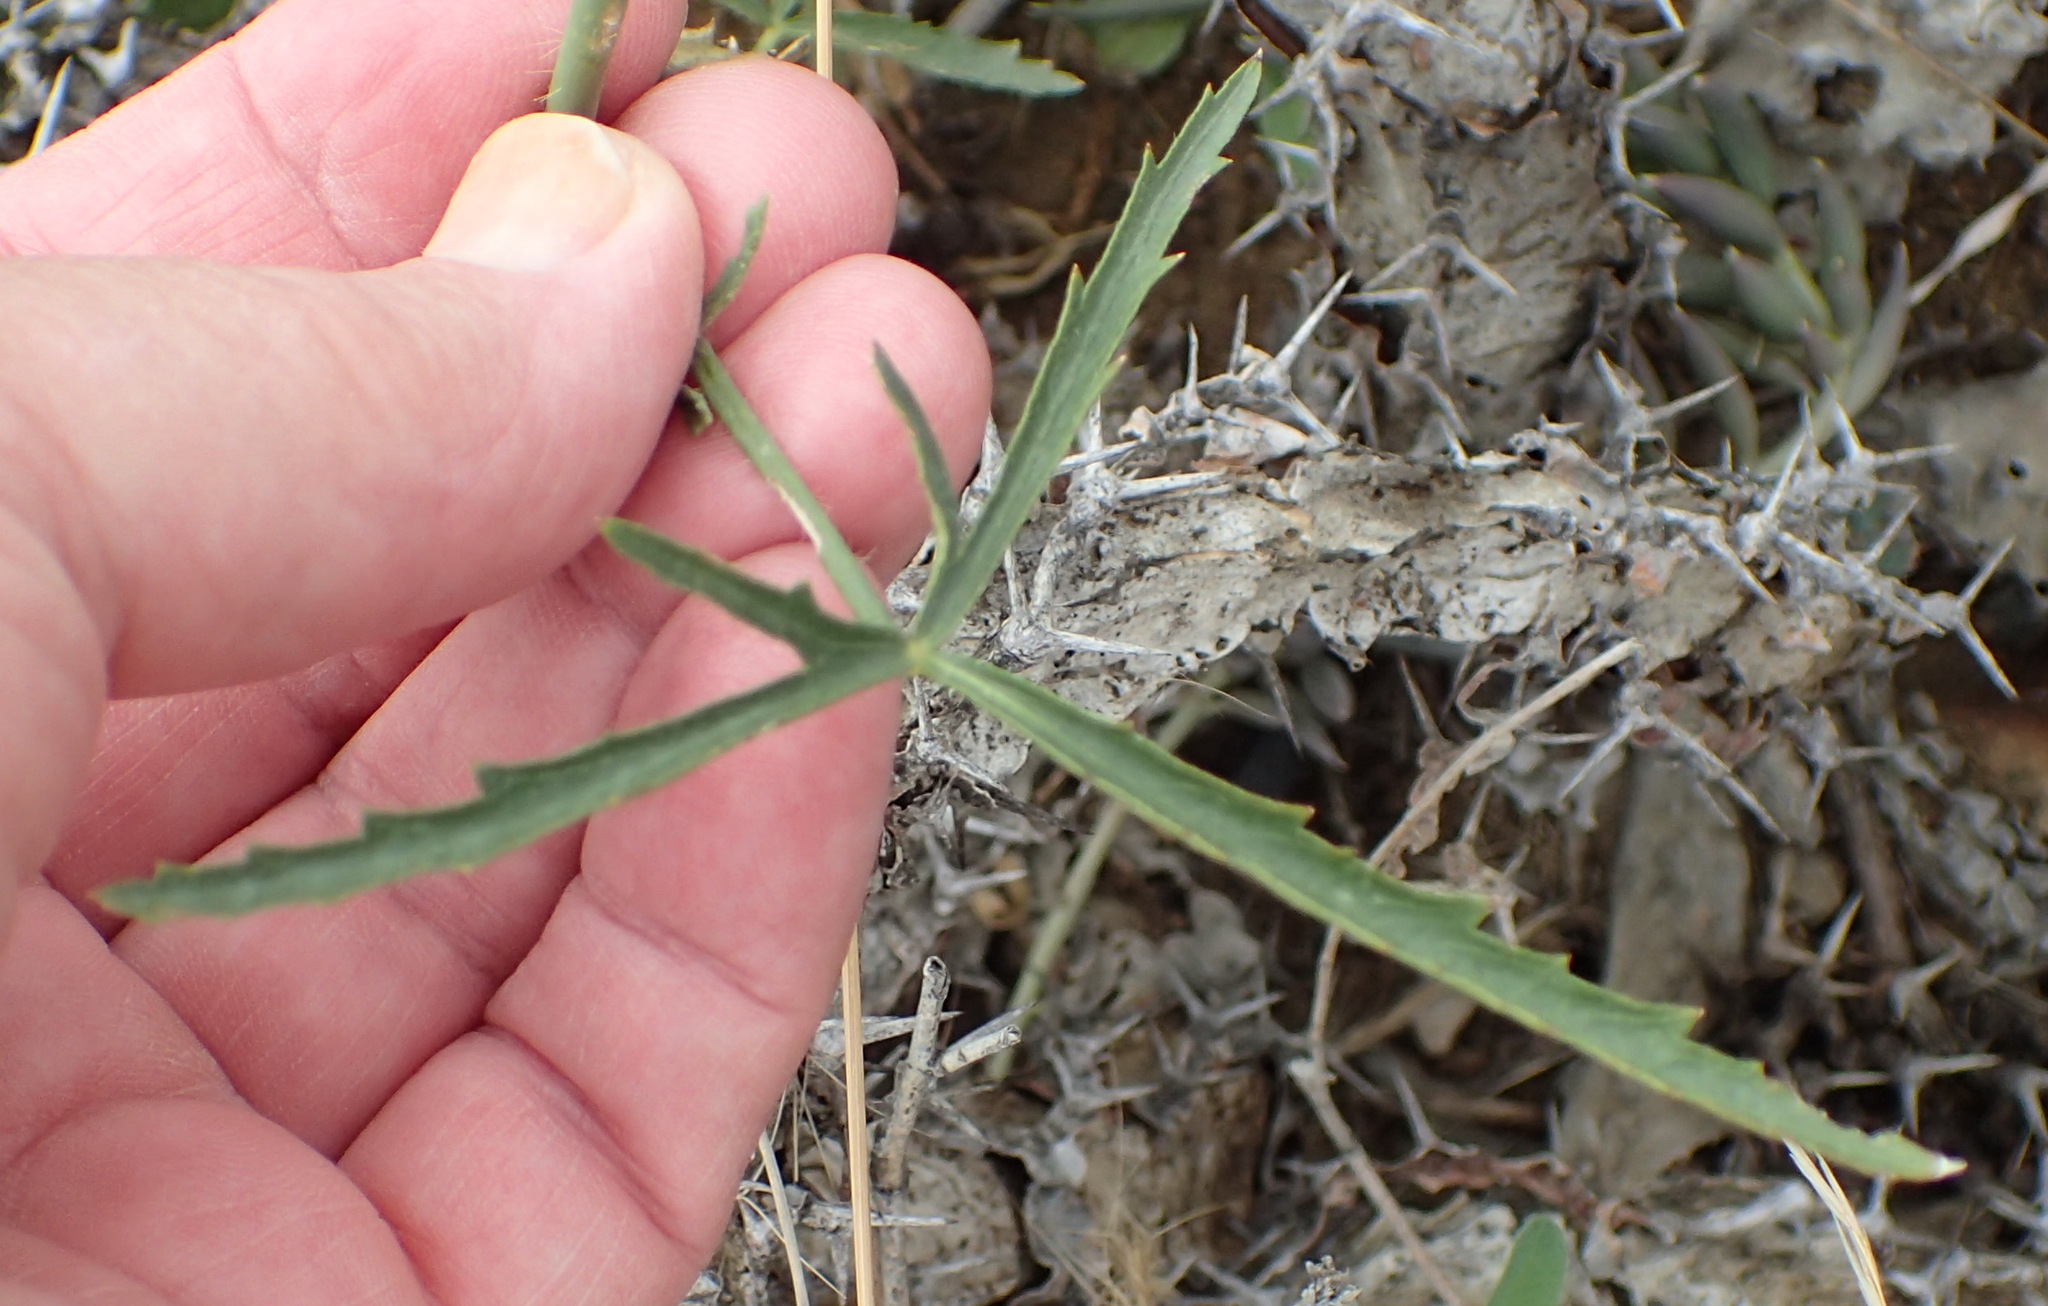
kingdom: Plantae
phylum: Tracheophyta
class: Magnoliopsida
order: Malvales
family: Malvaceae
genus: Hibiscus
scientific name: Hibiscus pusillus
